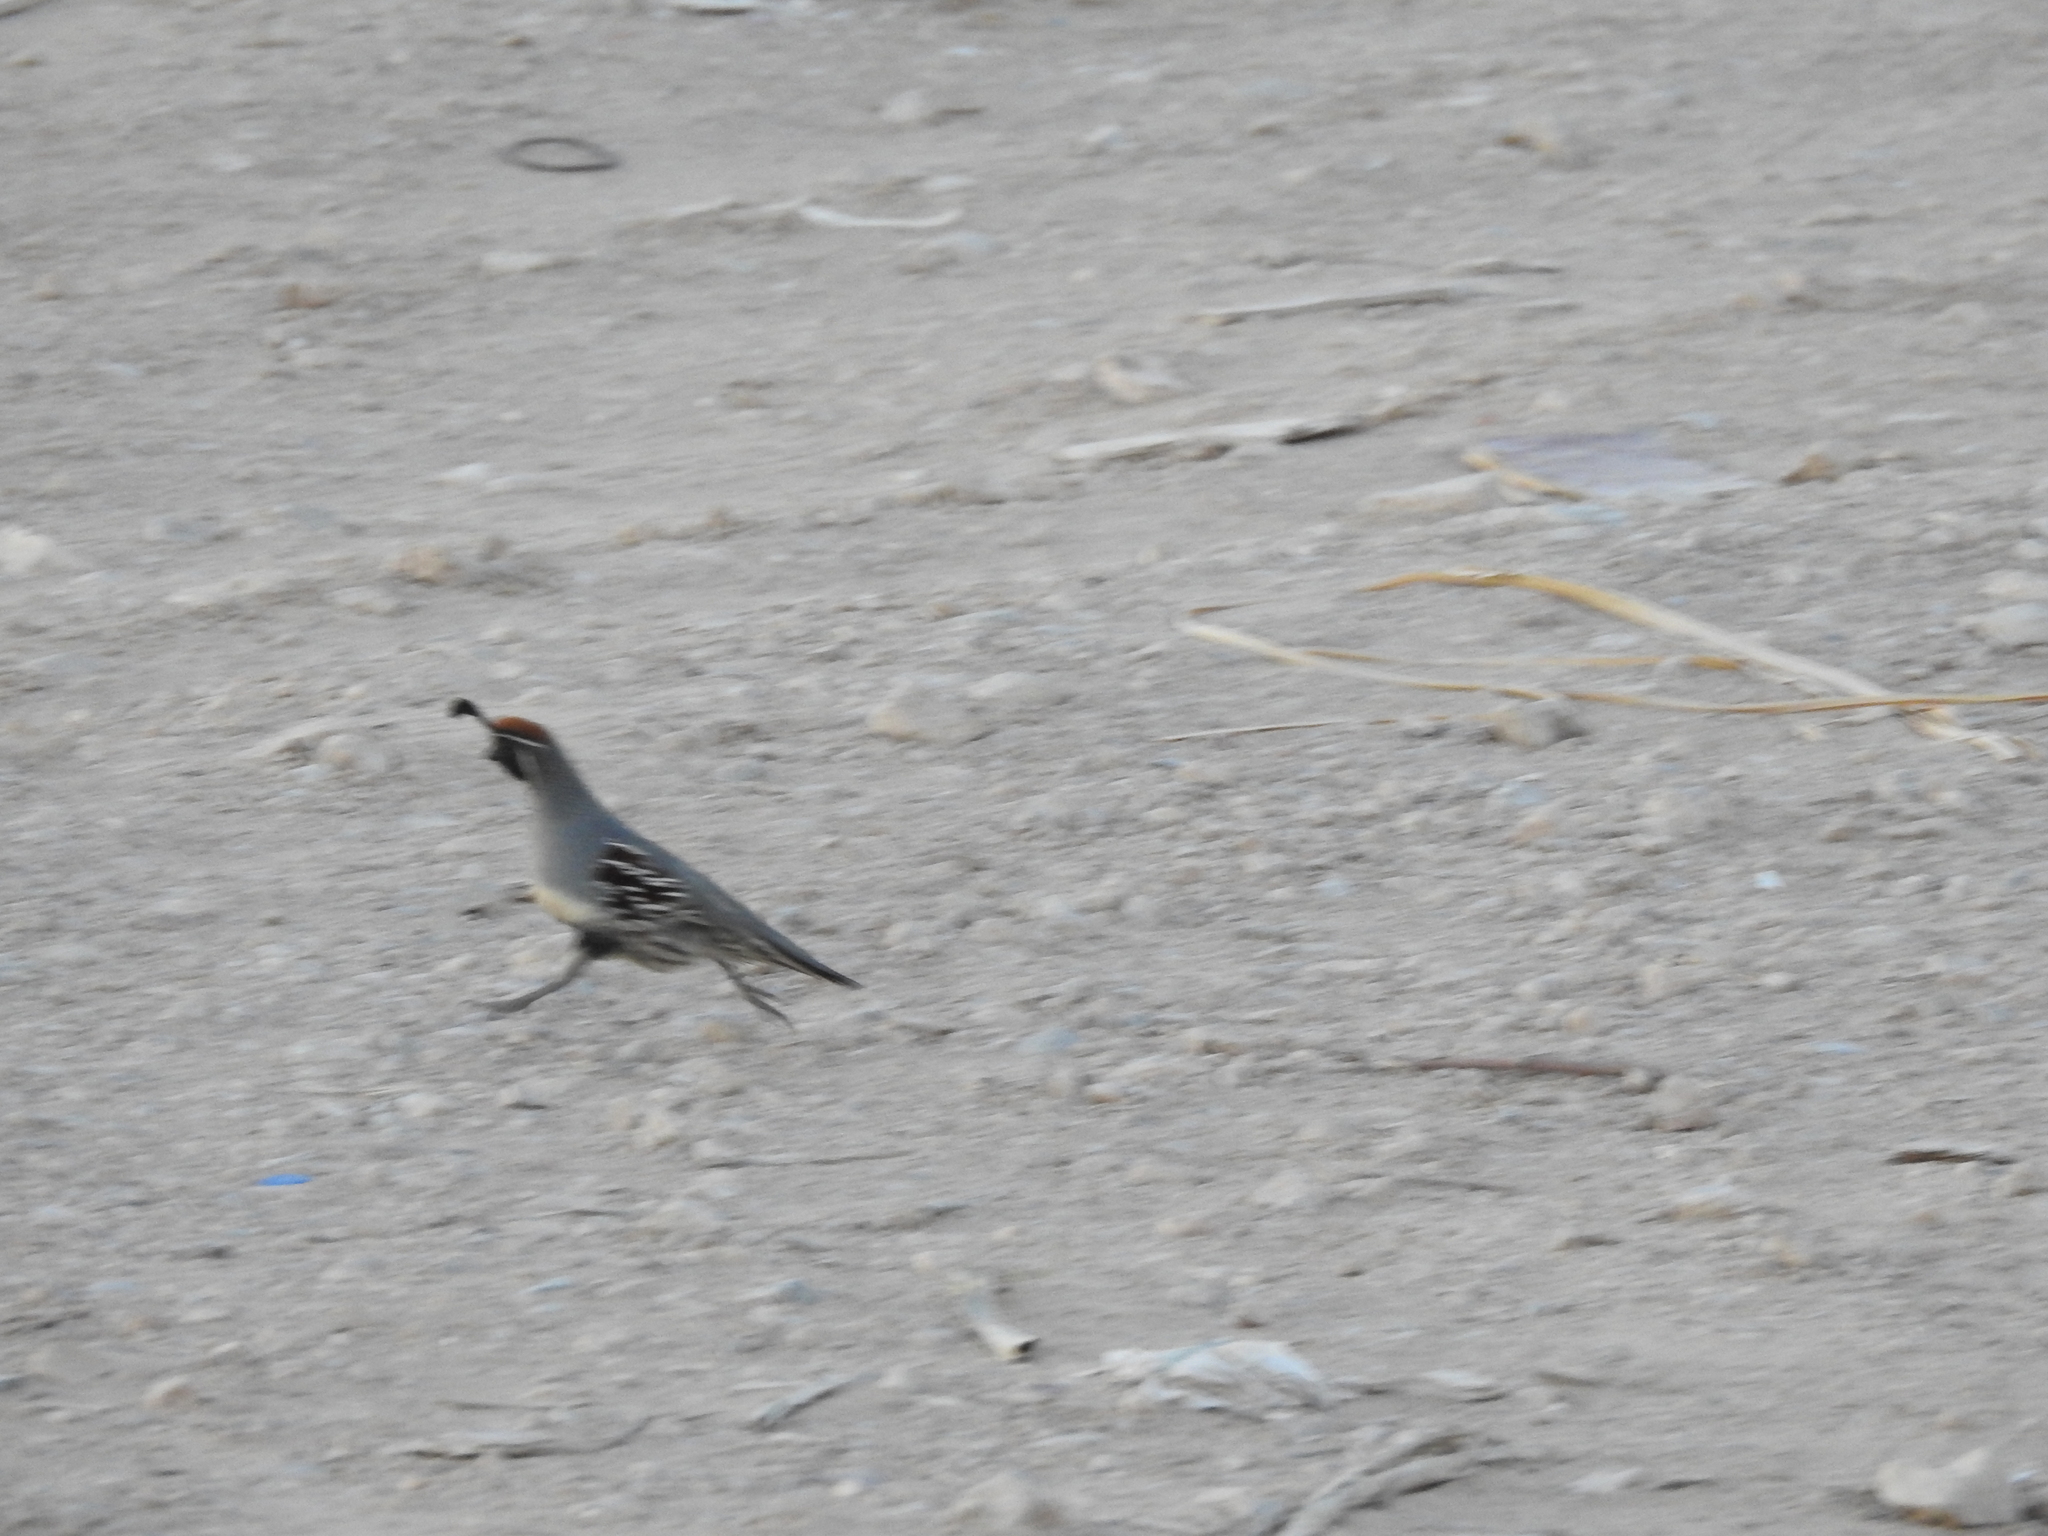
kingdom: Animalia
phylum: Chordata
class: Aves
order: Galliformes
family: Odontophoridae
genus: Callipepla
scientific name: Callipepla gambelii
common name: Gambel's quail
